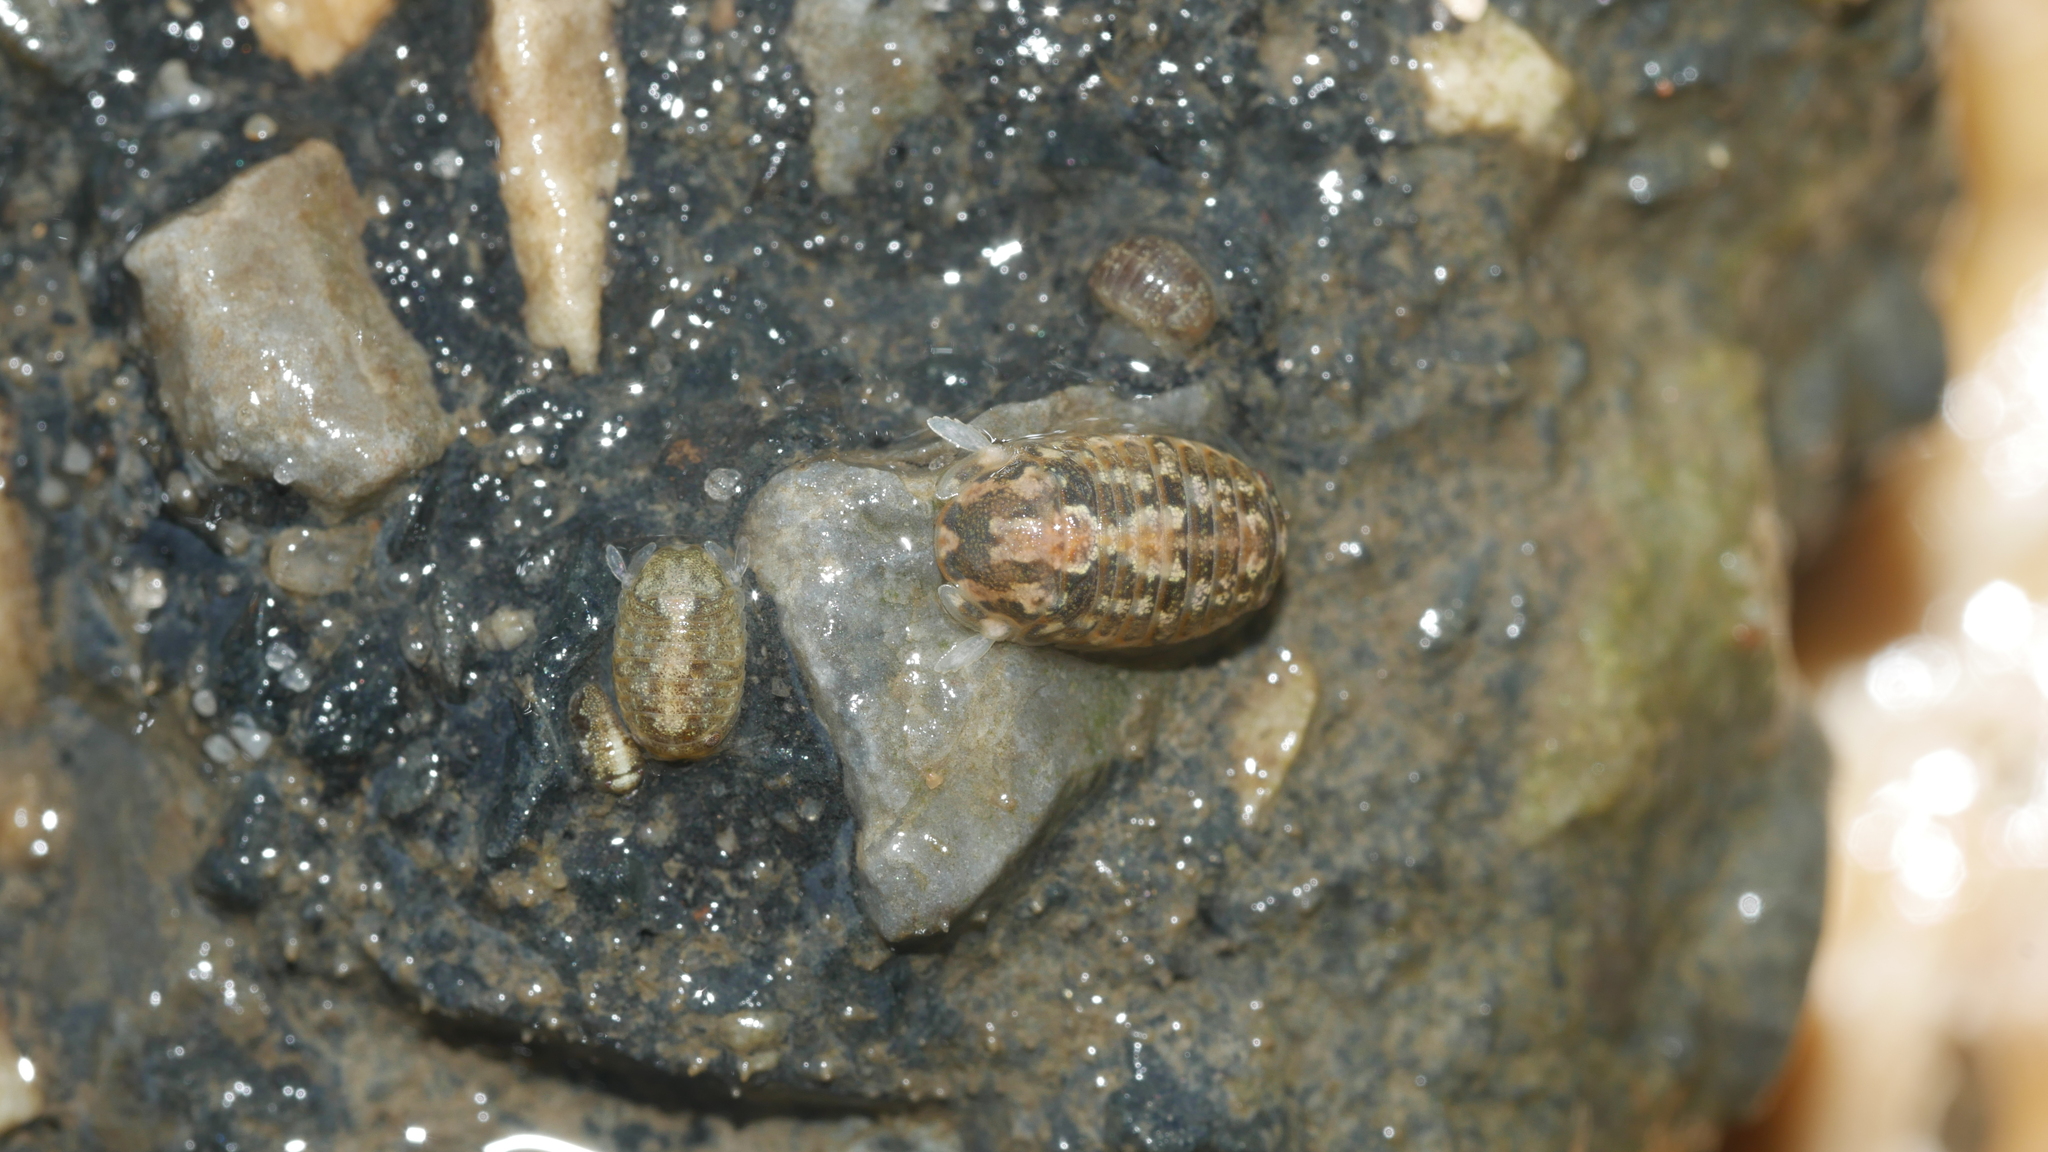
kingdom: Animalia
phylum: Arthropoda
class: Malacostraca
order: Isopoda
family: Sphaeromatidae
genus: Sphaeroma
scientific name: Sphaeroma quadridentatum
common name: Sea pill bug
